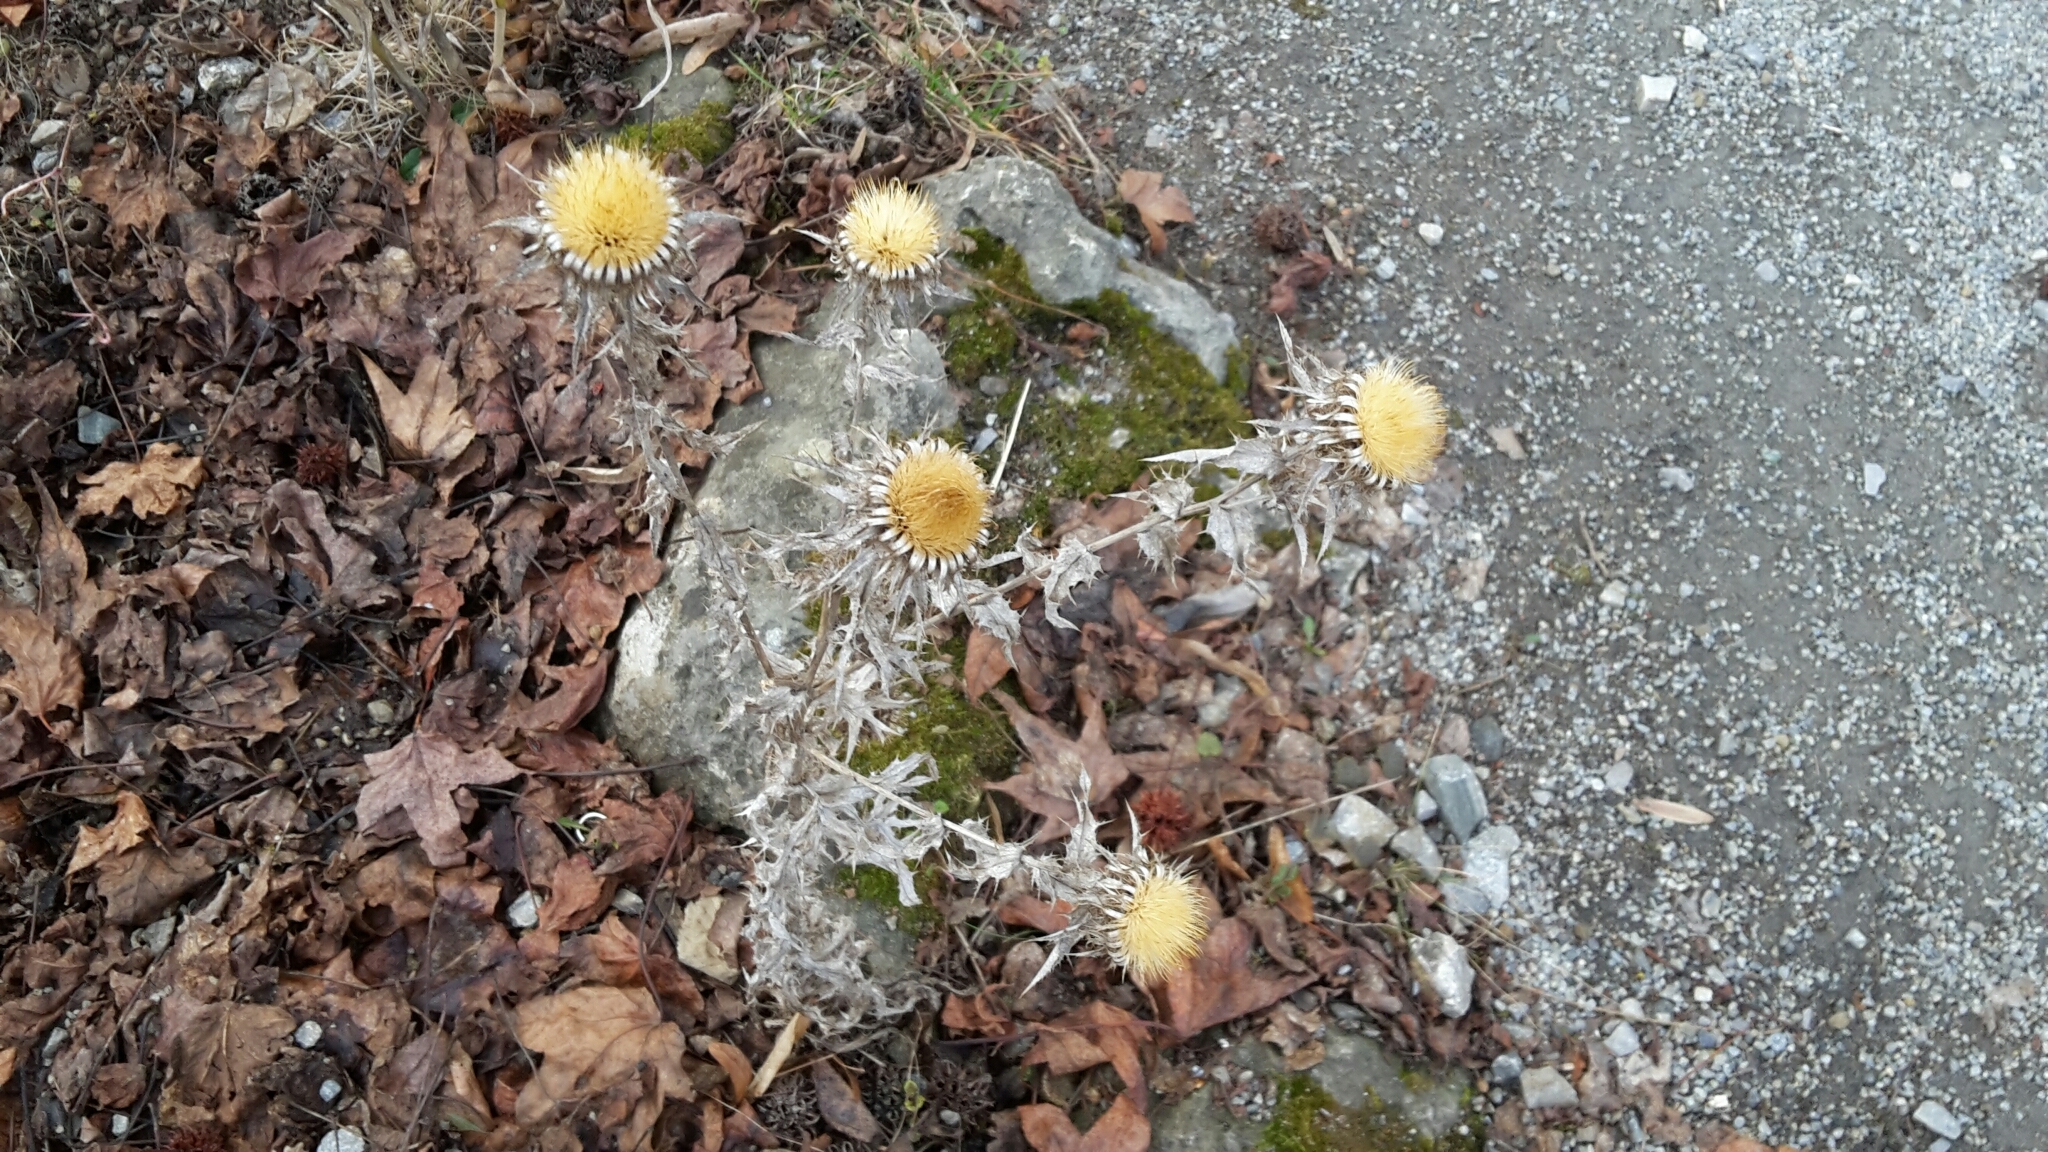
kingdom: Plantae
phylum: Tracheophyta
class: Magnoliopsida
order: Asterales
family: Asteraceae
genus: Carlina
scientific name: Carlina vulgaris
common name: Carline thistle
